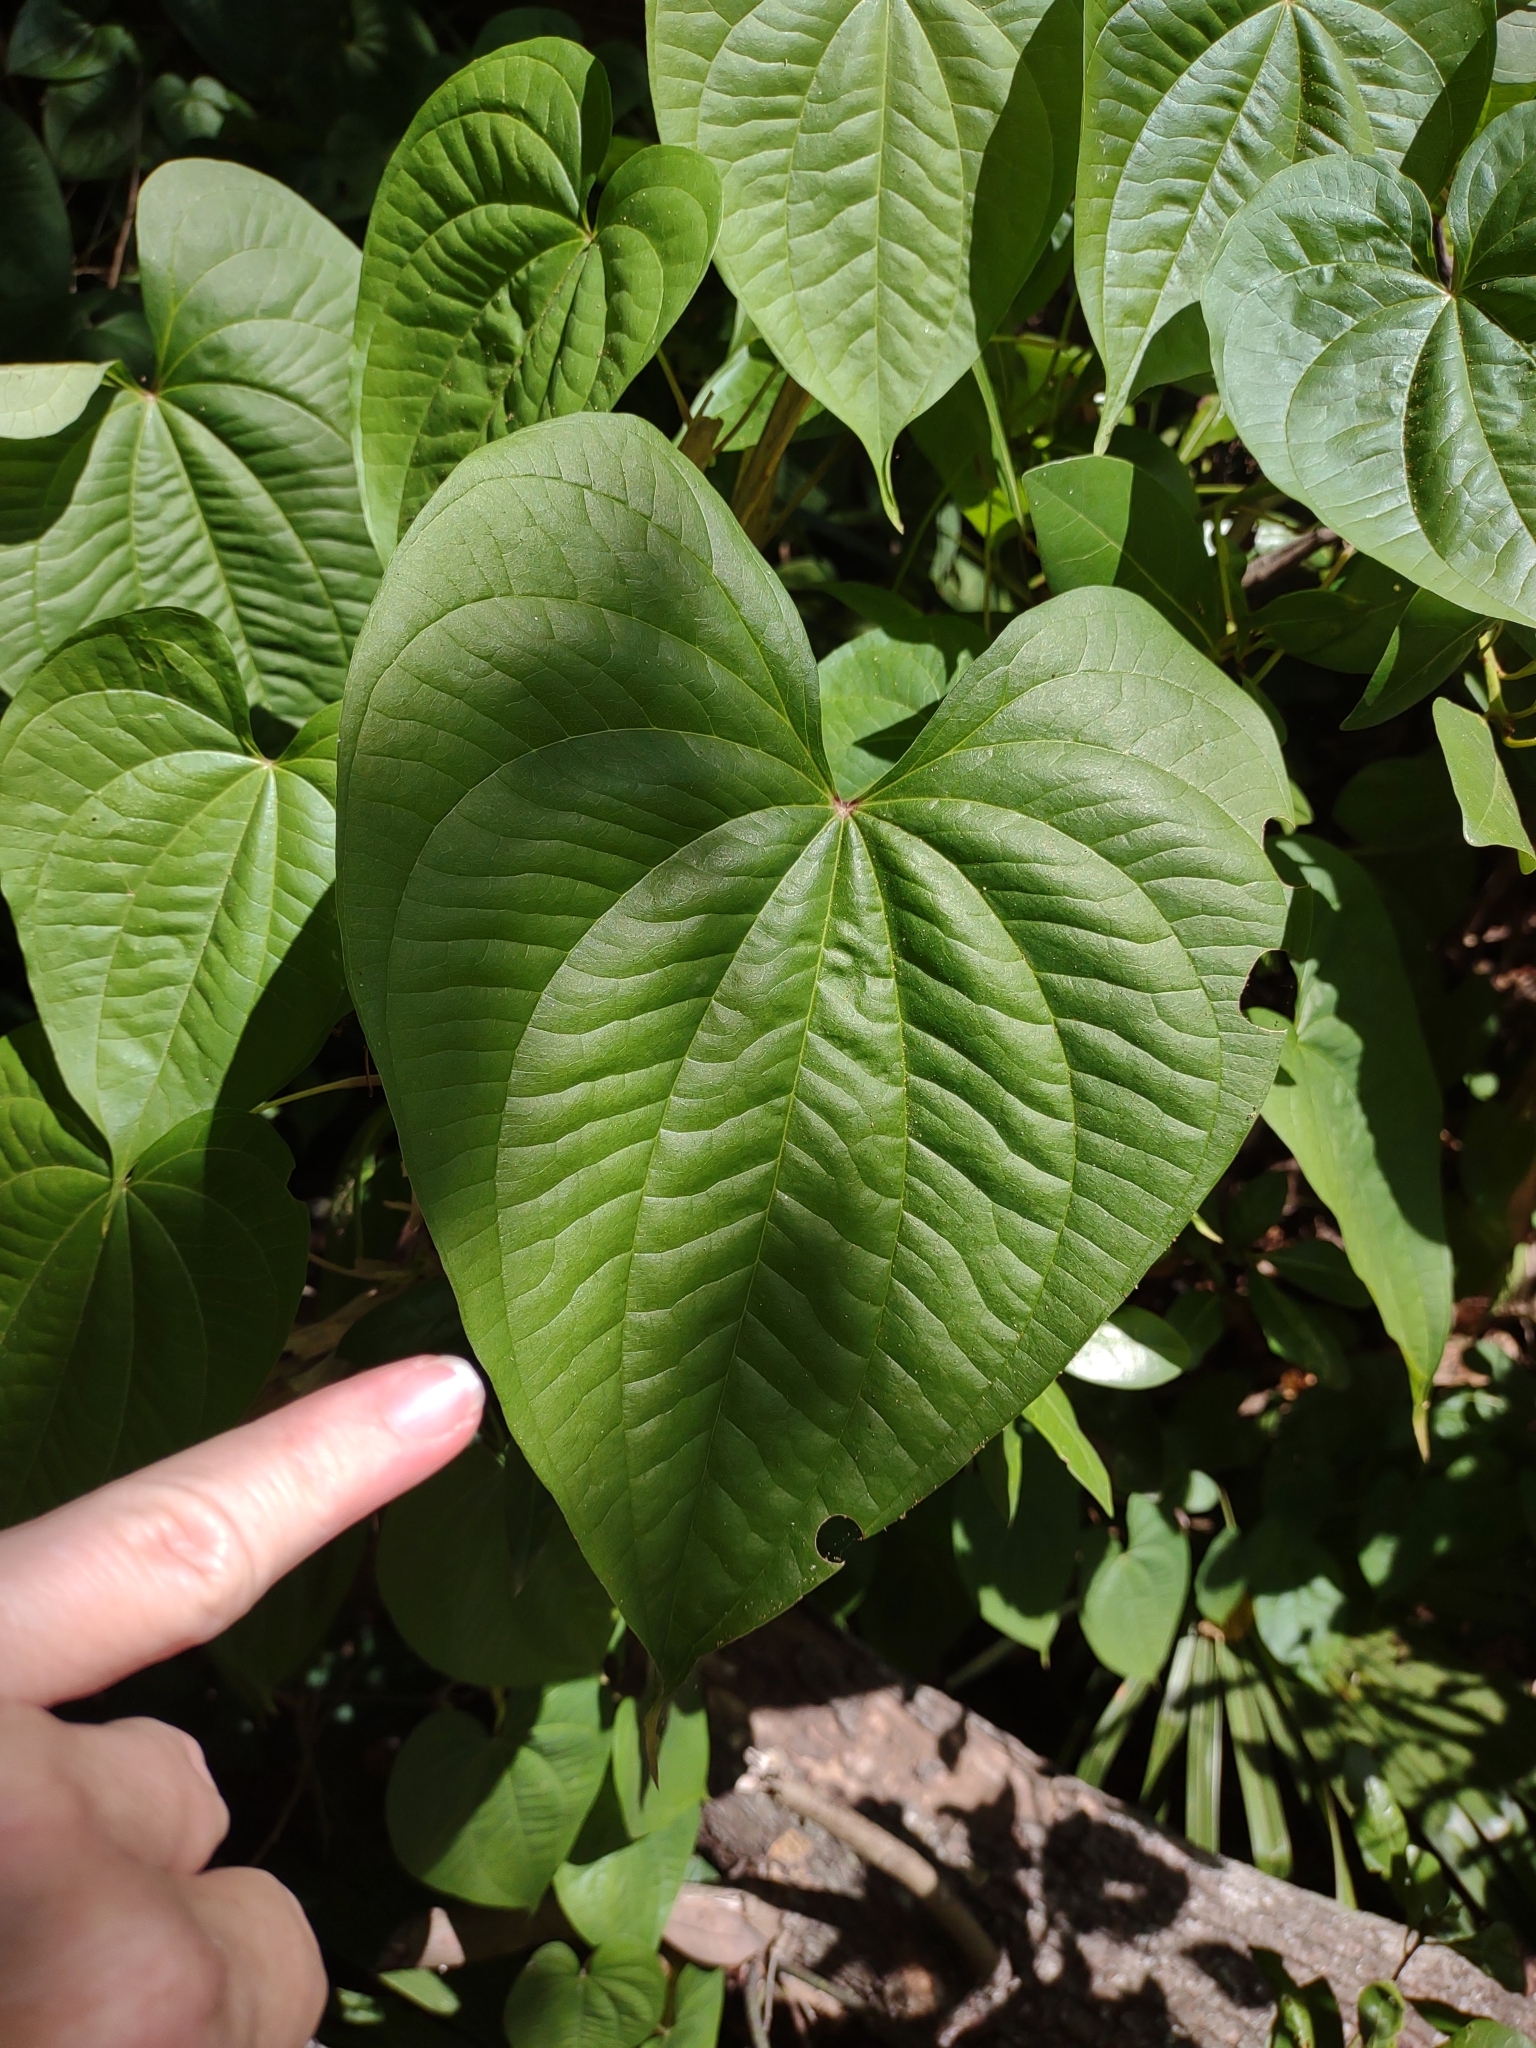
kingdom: Plantae
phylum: Tracheophyta
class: Liliopsida
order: Dioscoreales
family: Dioscoreaceae
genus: Dioscorea
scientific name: Dioscorea bulbifera
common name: Air yam
